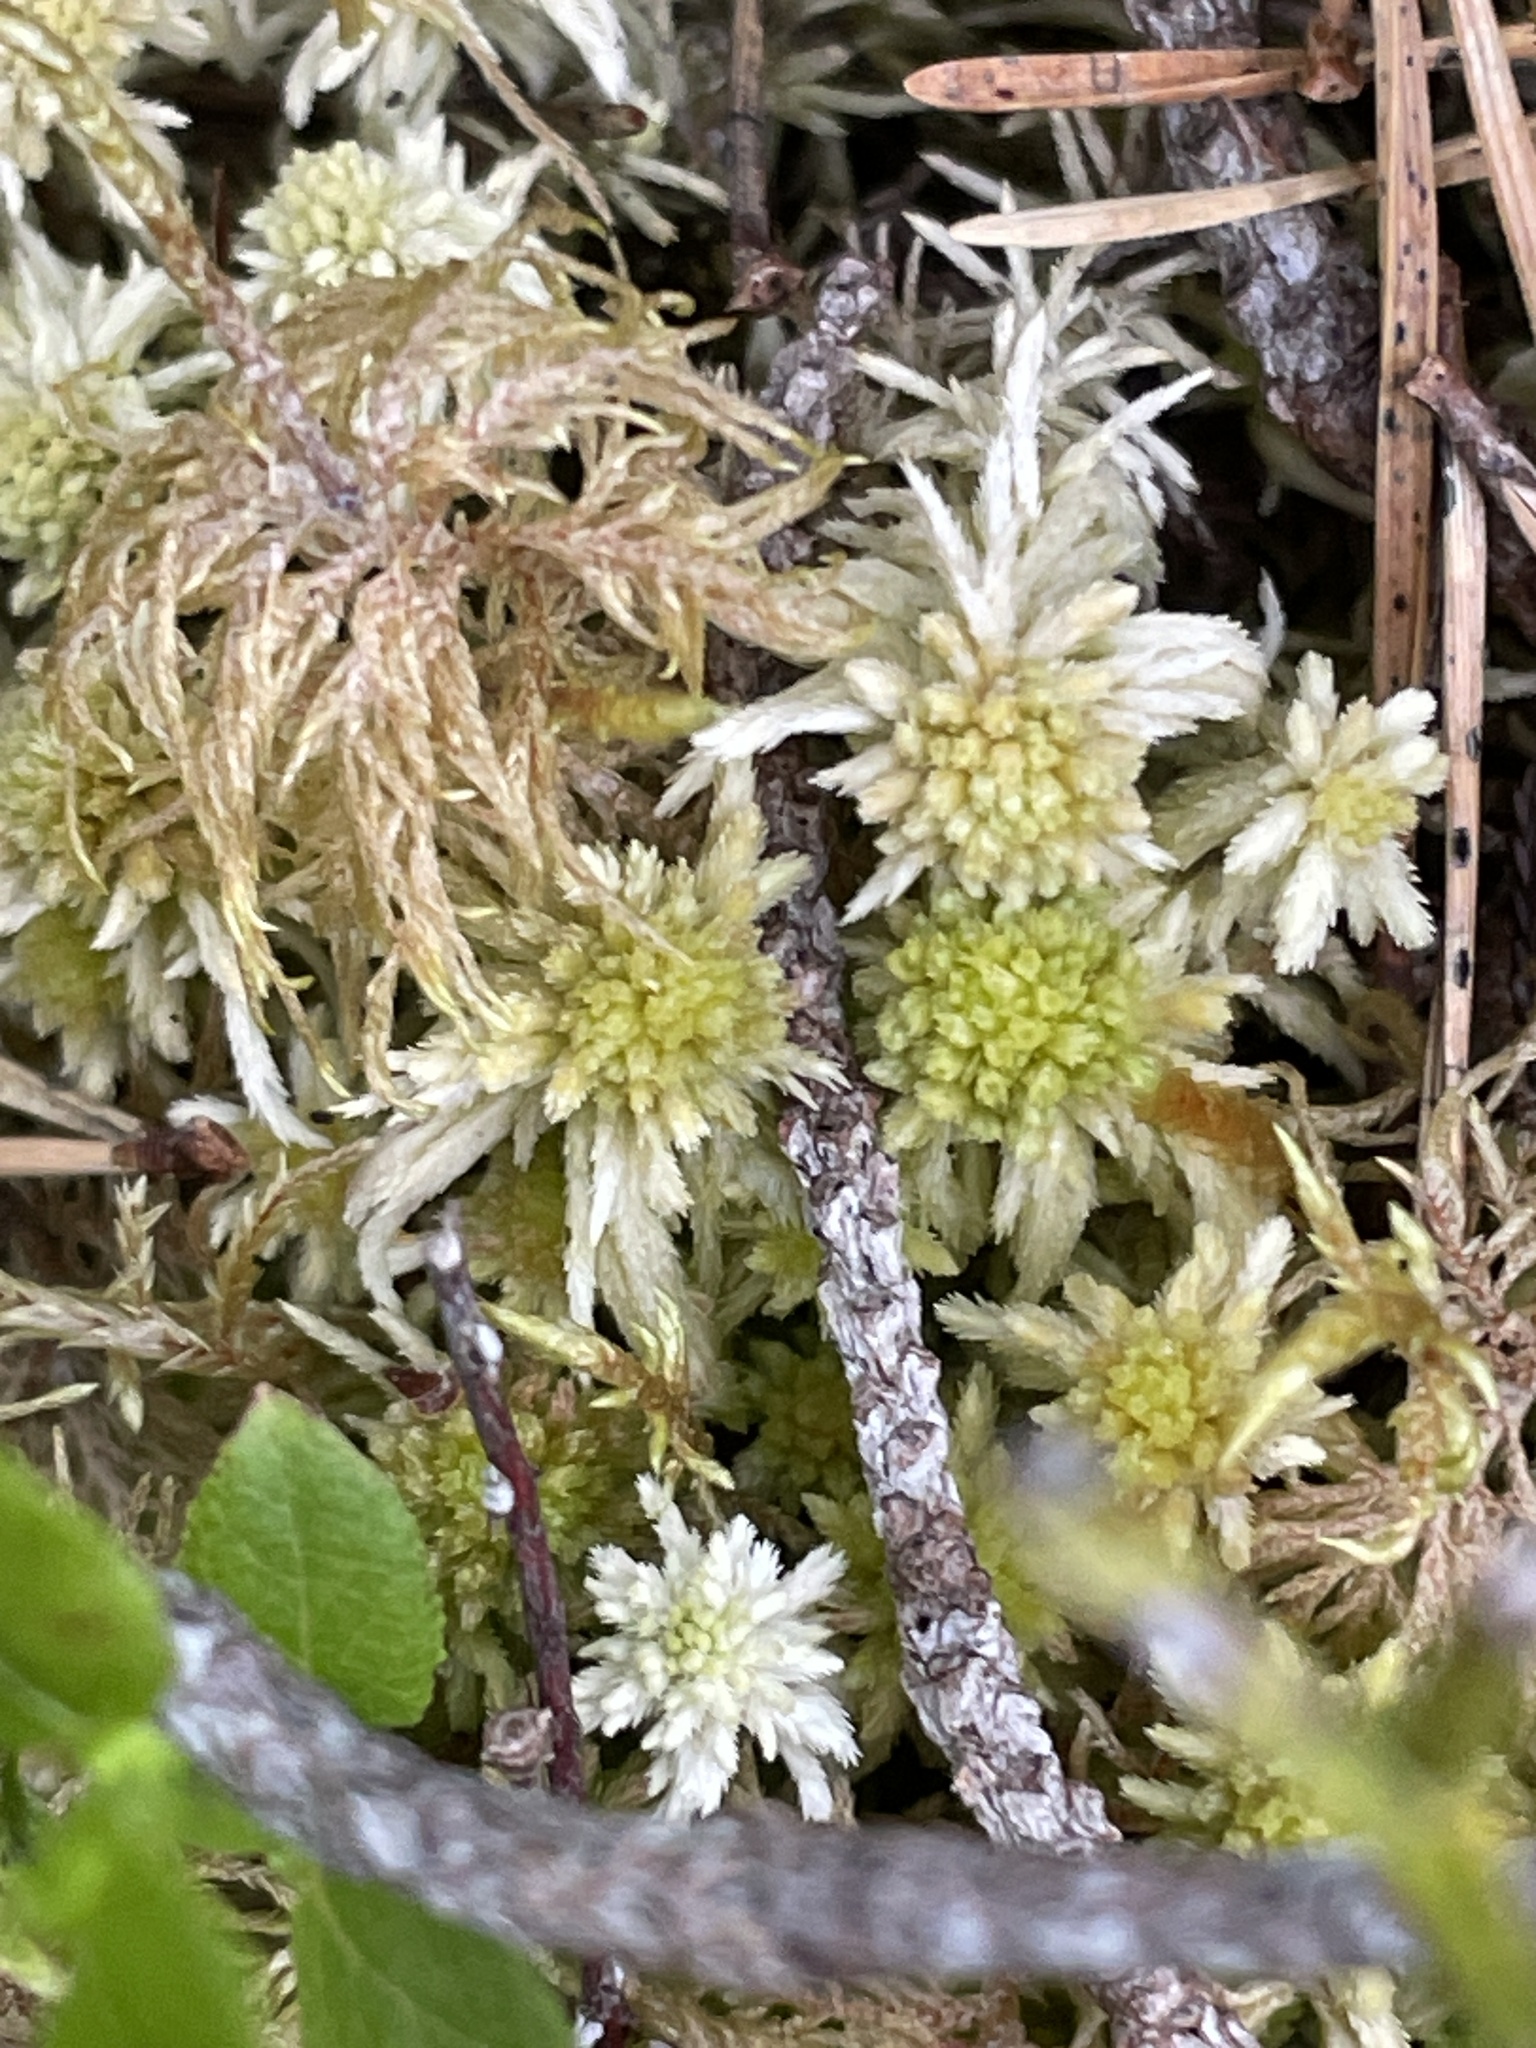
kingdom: Plantae
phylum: Bryophyta
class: Sphagnopsida
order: Sphagnales
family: Sphagnaceae
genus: Sphagnum
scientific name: Sphagnum fallax
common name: Flat-top peat moss
